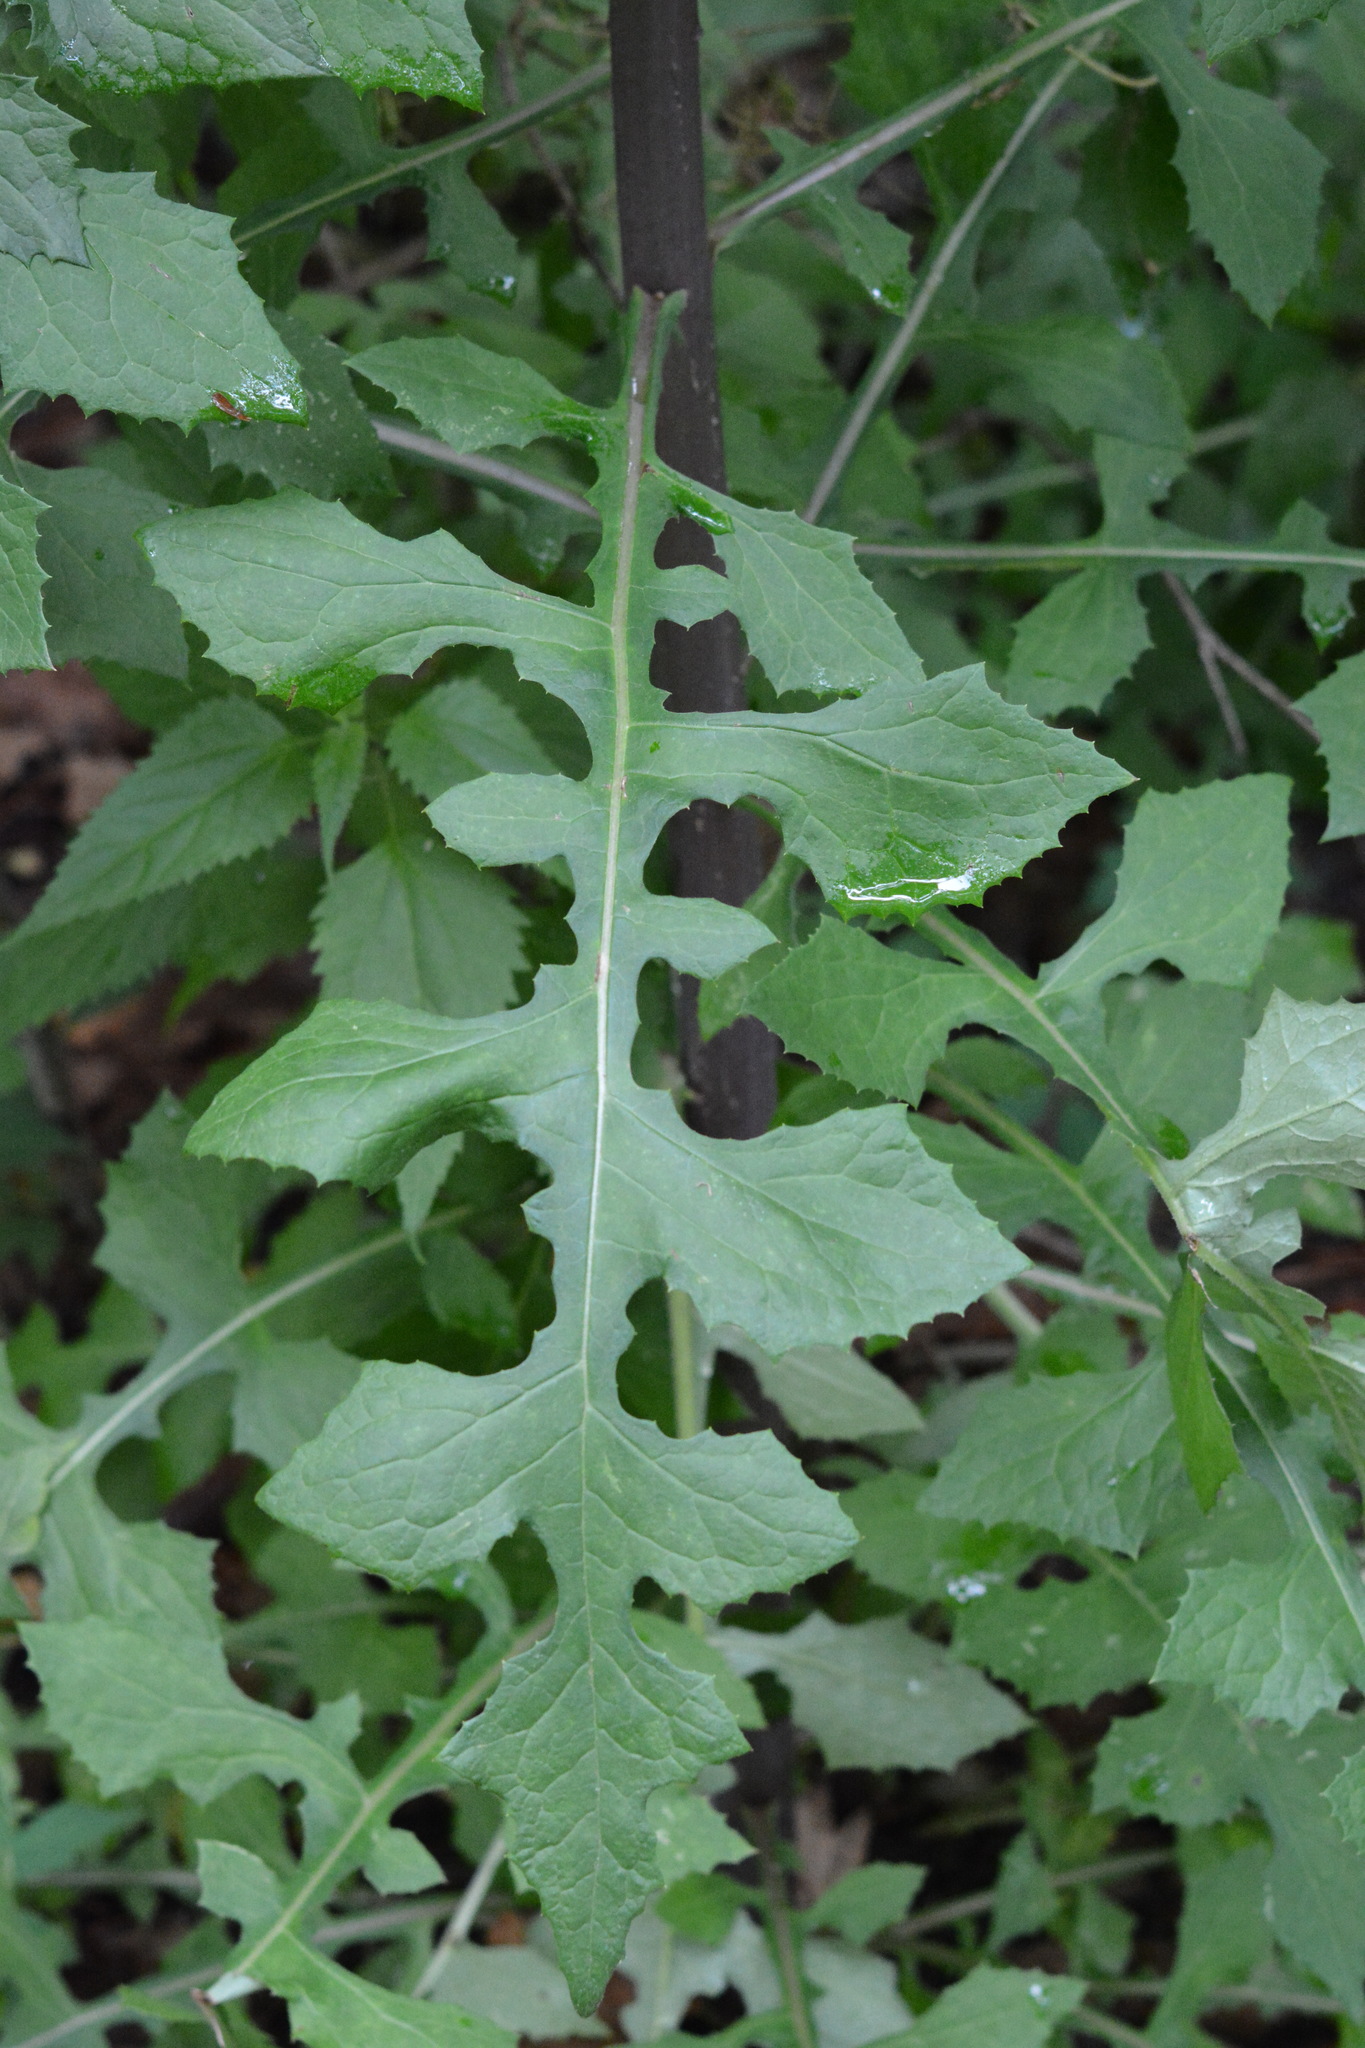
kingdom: Plantae
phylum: Tracheophyta
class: Magnoliopsida
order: Asterales
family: Asteraceae
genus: Lactuca
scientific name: Lactuca floridana
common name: Woodland lettuce
